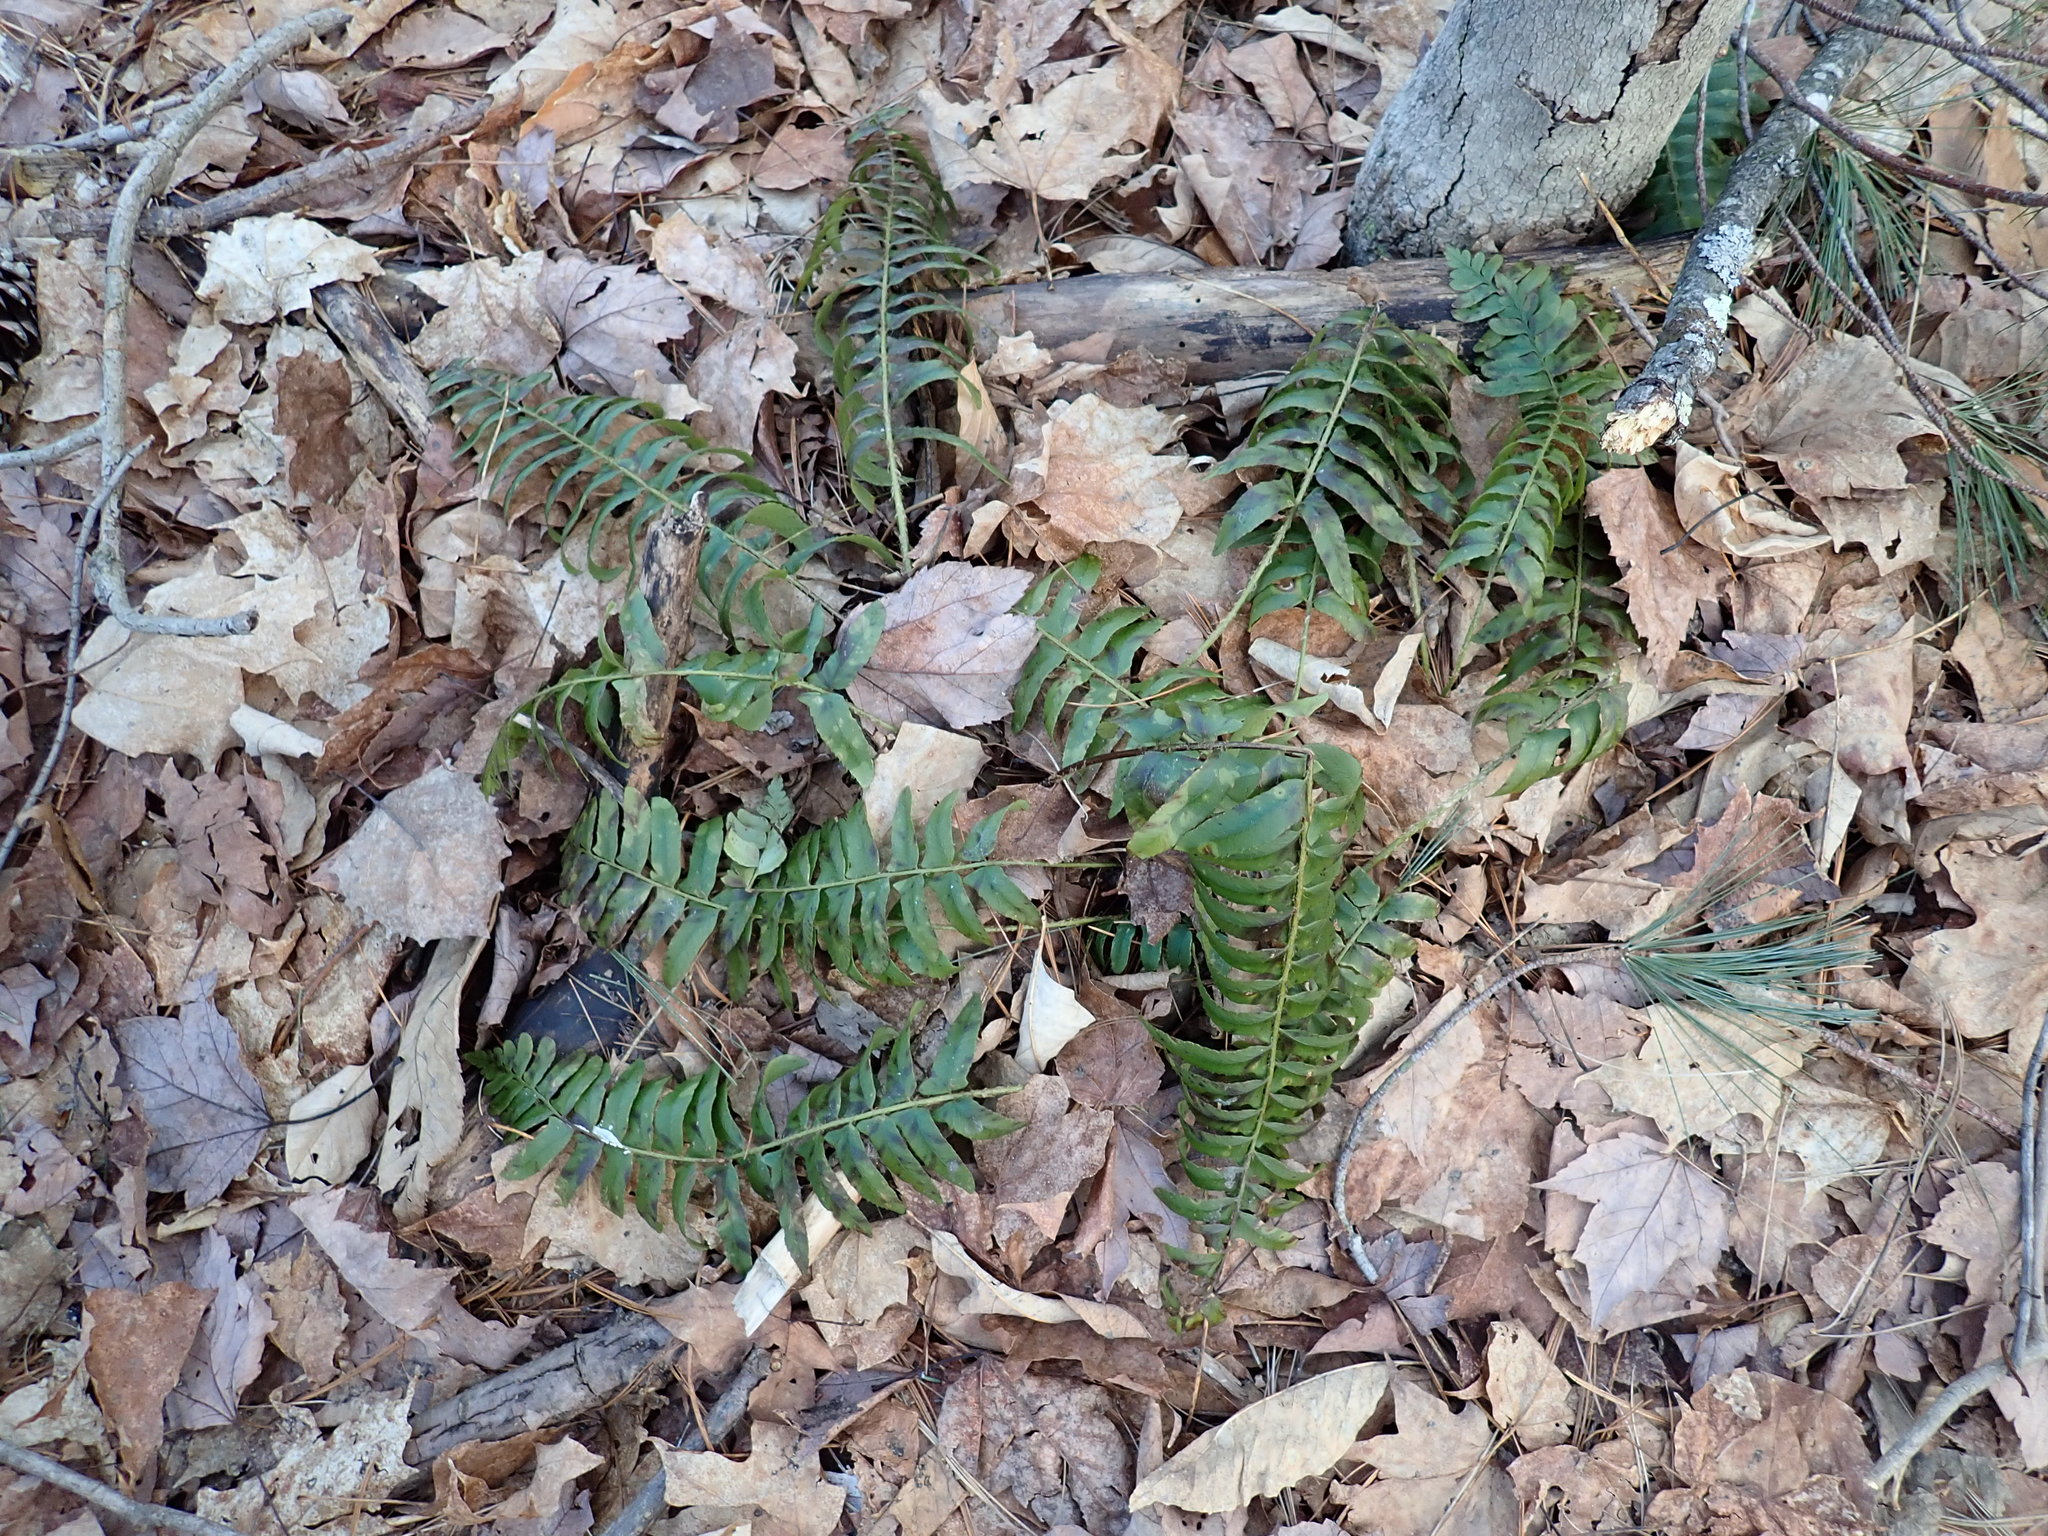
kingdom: Plantae
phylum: Tracheophyta
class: Polypodiopsida
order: Polypodiales
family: Dryopteridaceae
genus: Polystichum
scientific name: Polystichum acrostichoides
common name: Christmas fern
